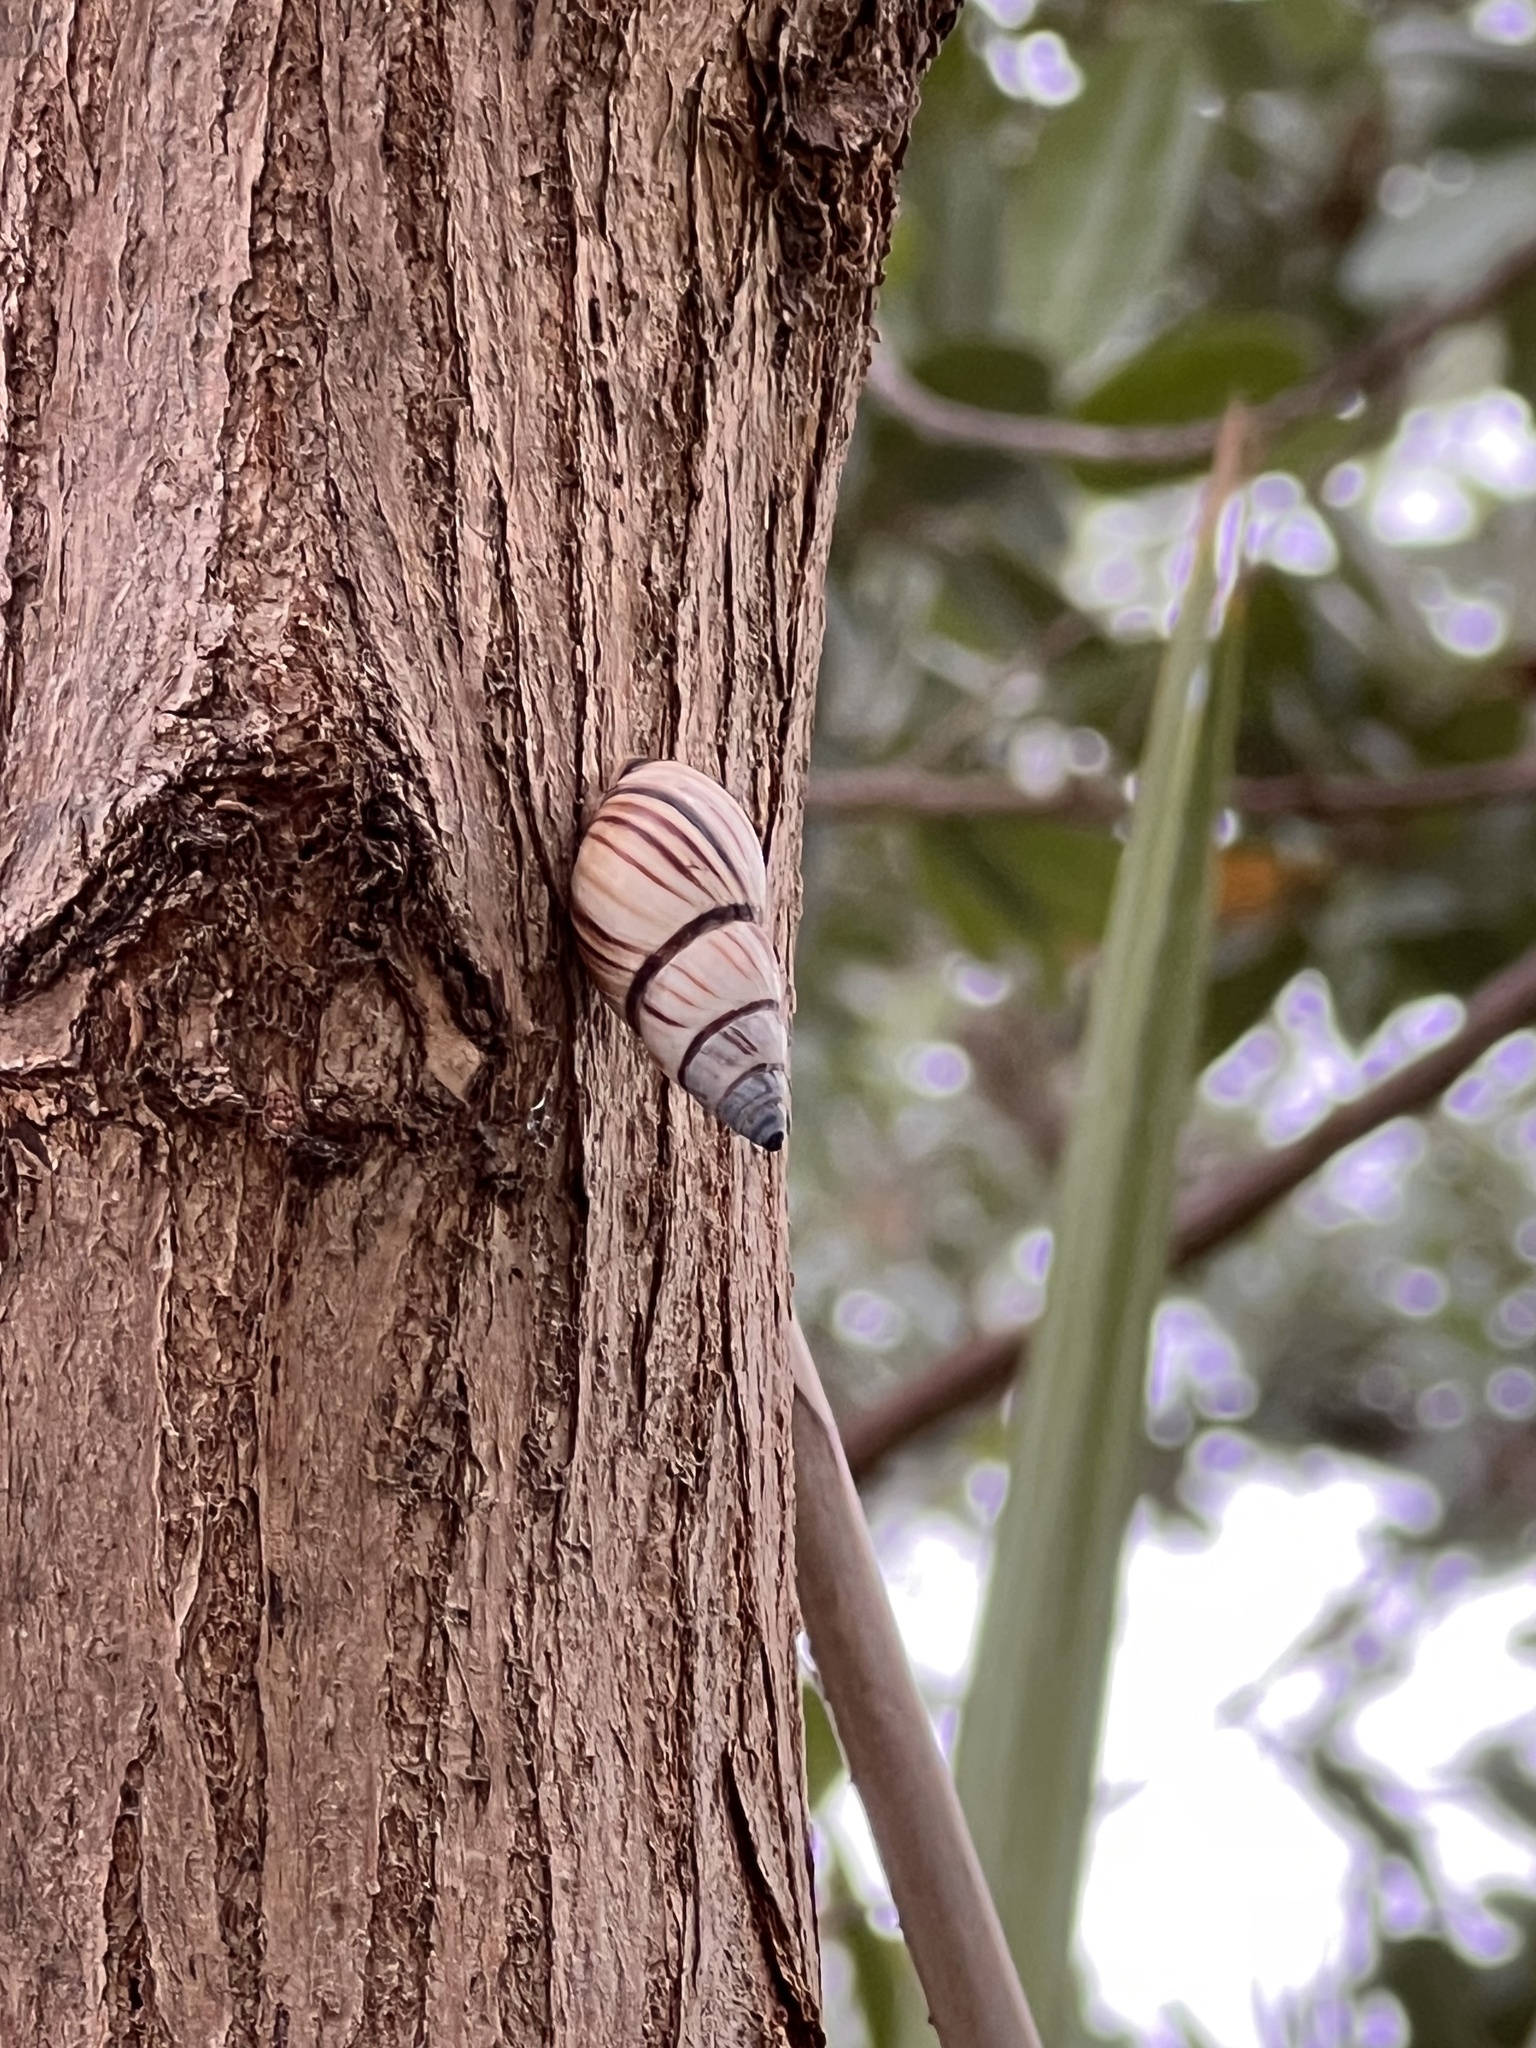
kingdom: Animalia
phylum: Mollusca
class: Gastropoda
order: Stylommatophora
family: Bulimulidae
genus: Drymaeus
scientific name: Drymaeus
